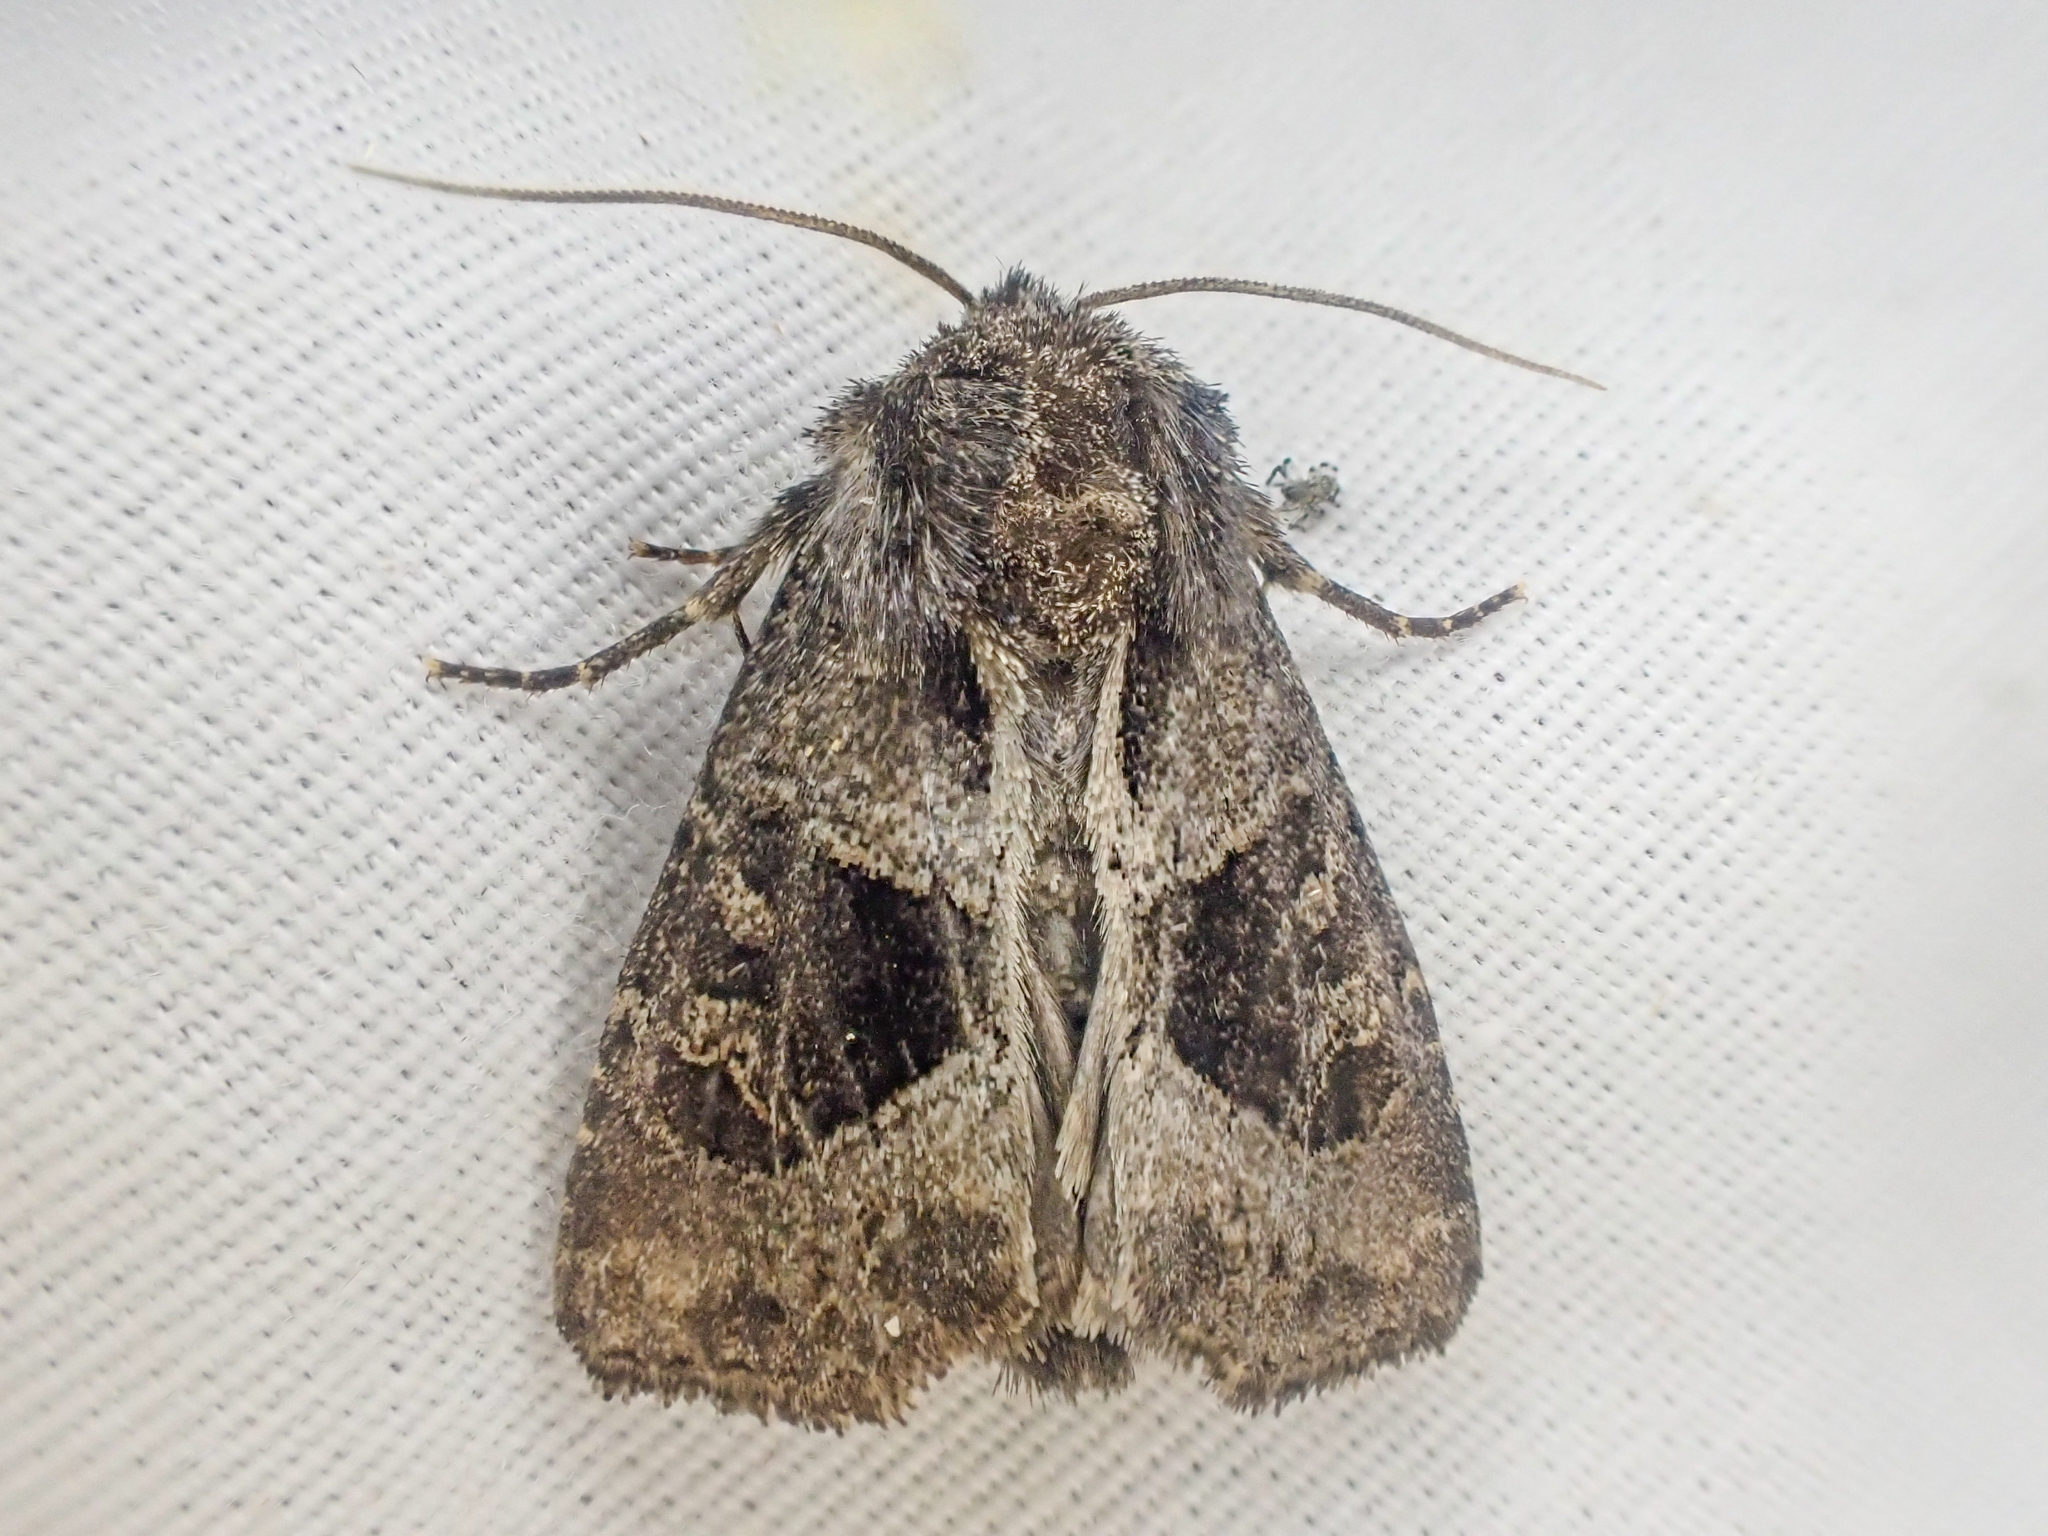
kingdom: Animalia
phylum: Arthropoda
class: Insecta
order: Lepidoptera
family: Noctuidae
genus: Oligia
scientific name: Oligia obtusa
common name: Obtuse sedge borer
